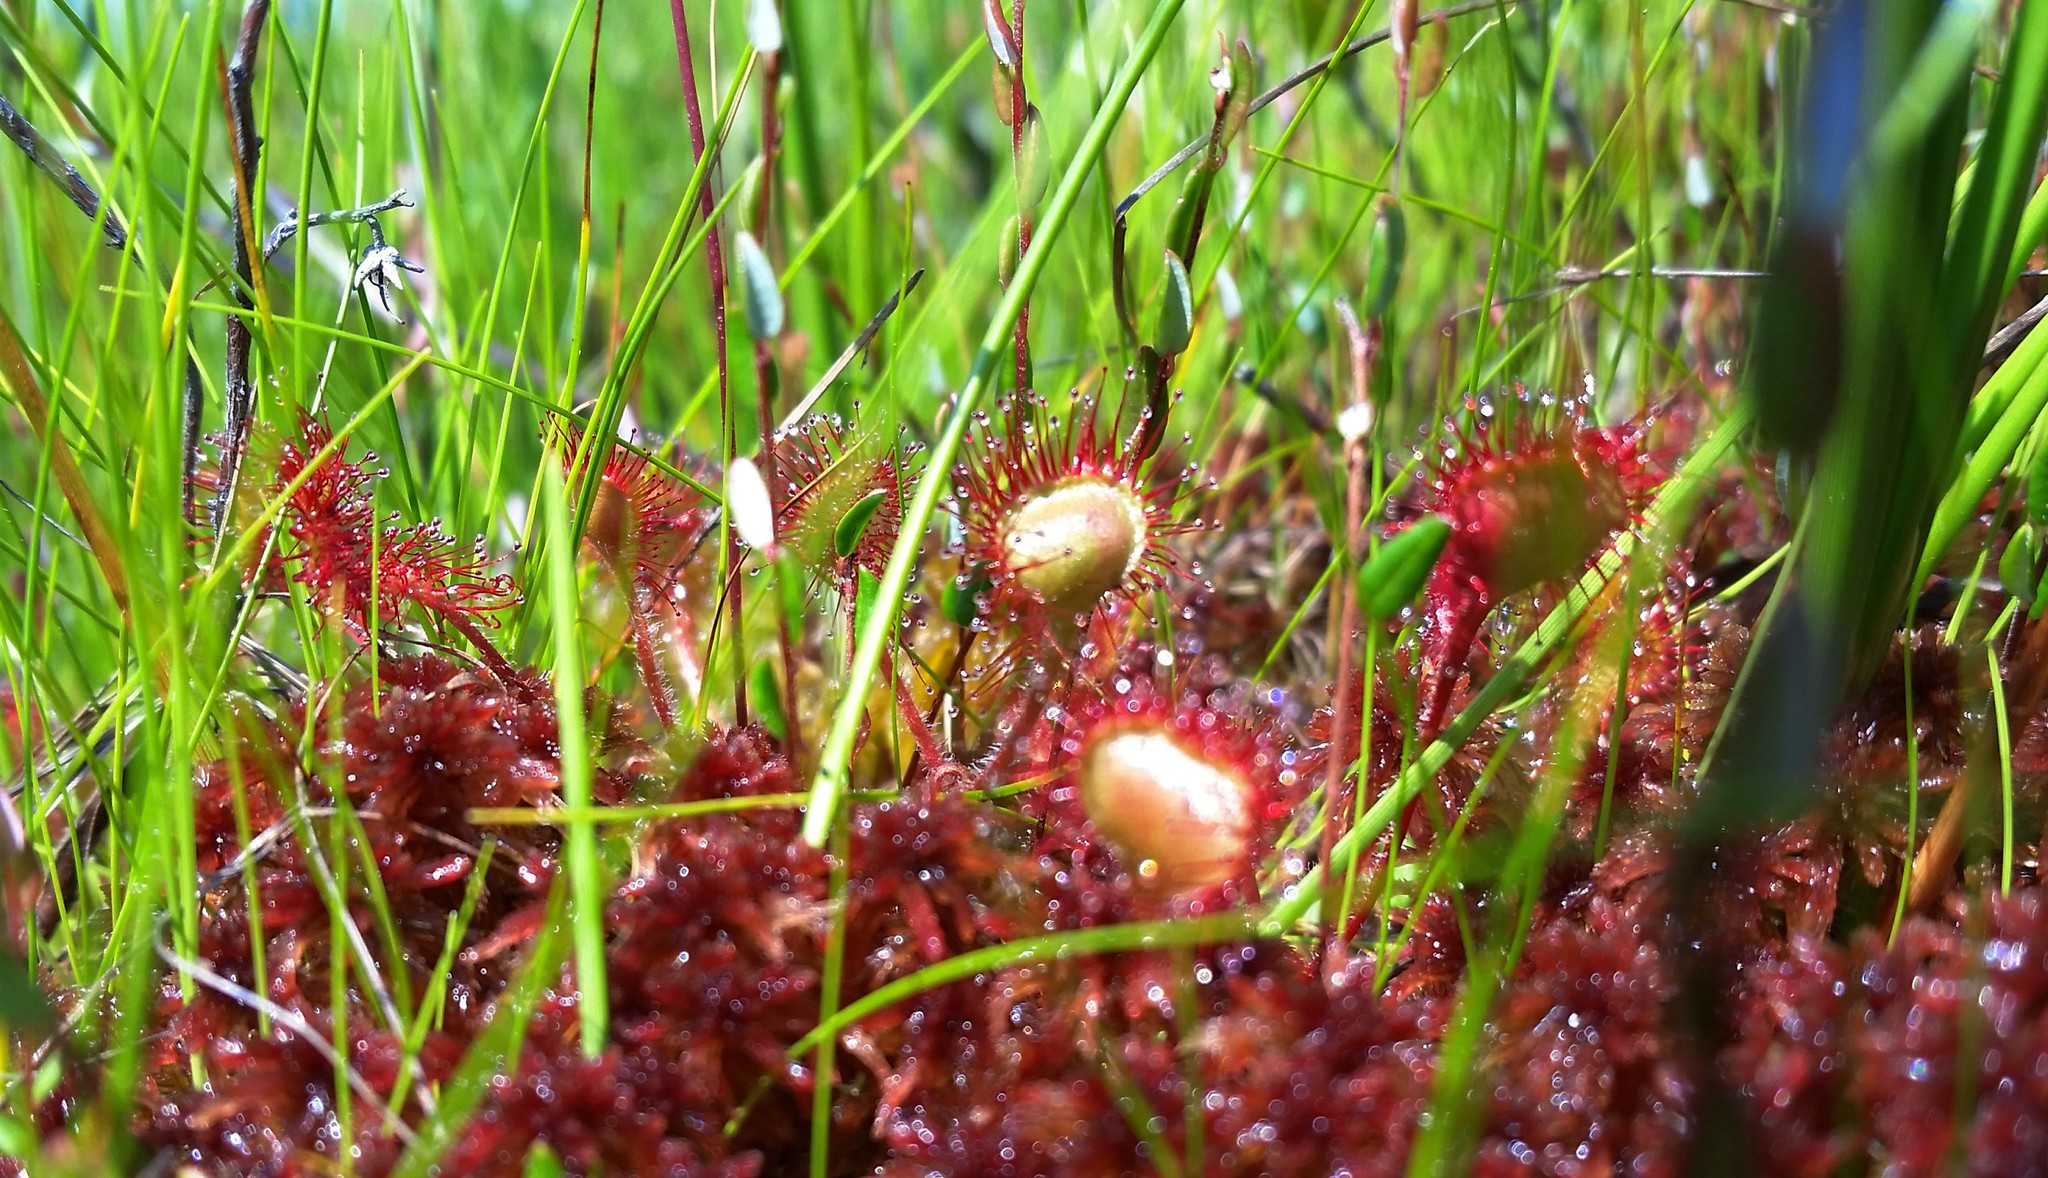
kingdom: Plantae
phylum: Tracheophyta
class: Magnoliopsida
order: Caryophyllales
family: Droseraceae
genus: Drosera
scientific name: Drosera rotundifolia
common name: Round-leaved sundew
